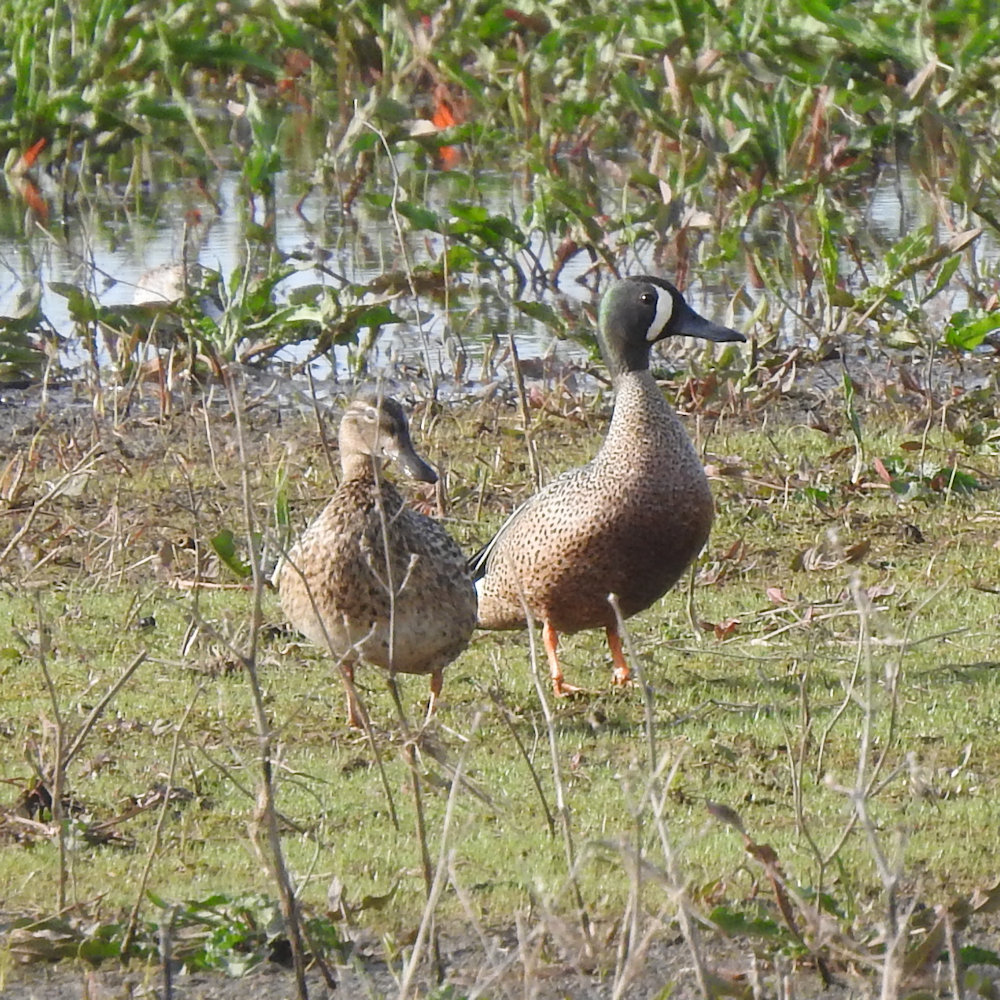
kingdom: Animalia
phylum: Chordata
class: Aves
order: Anseriformes
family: Anatidae
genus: Spatula
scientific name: Spatula discors
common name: Blue-winged teal
